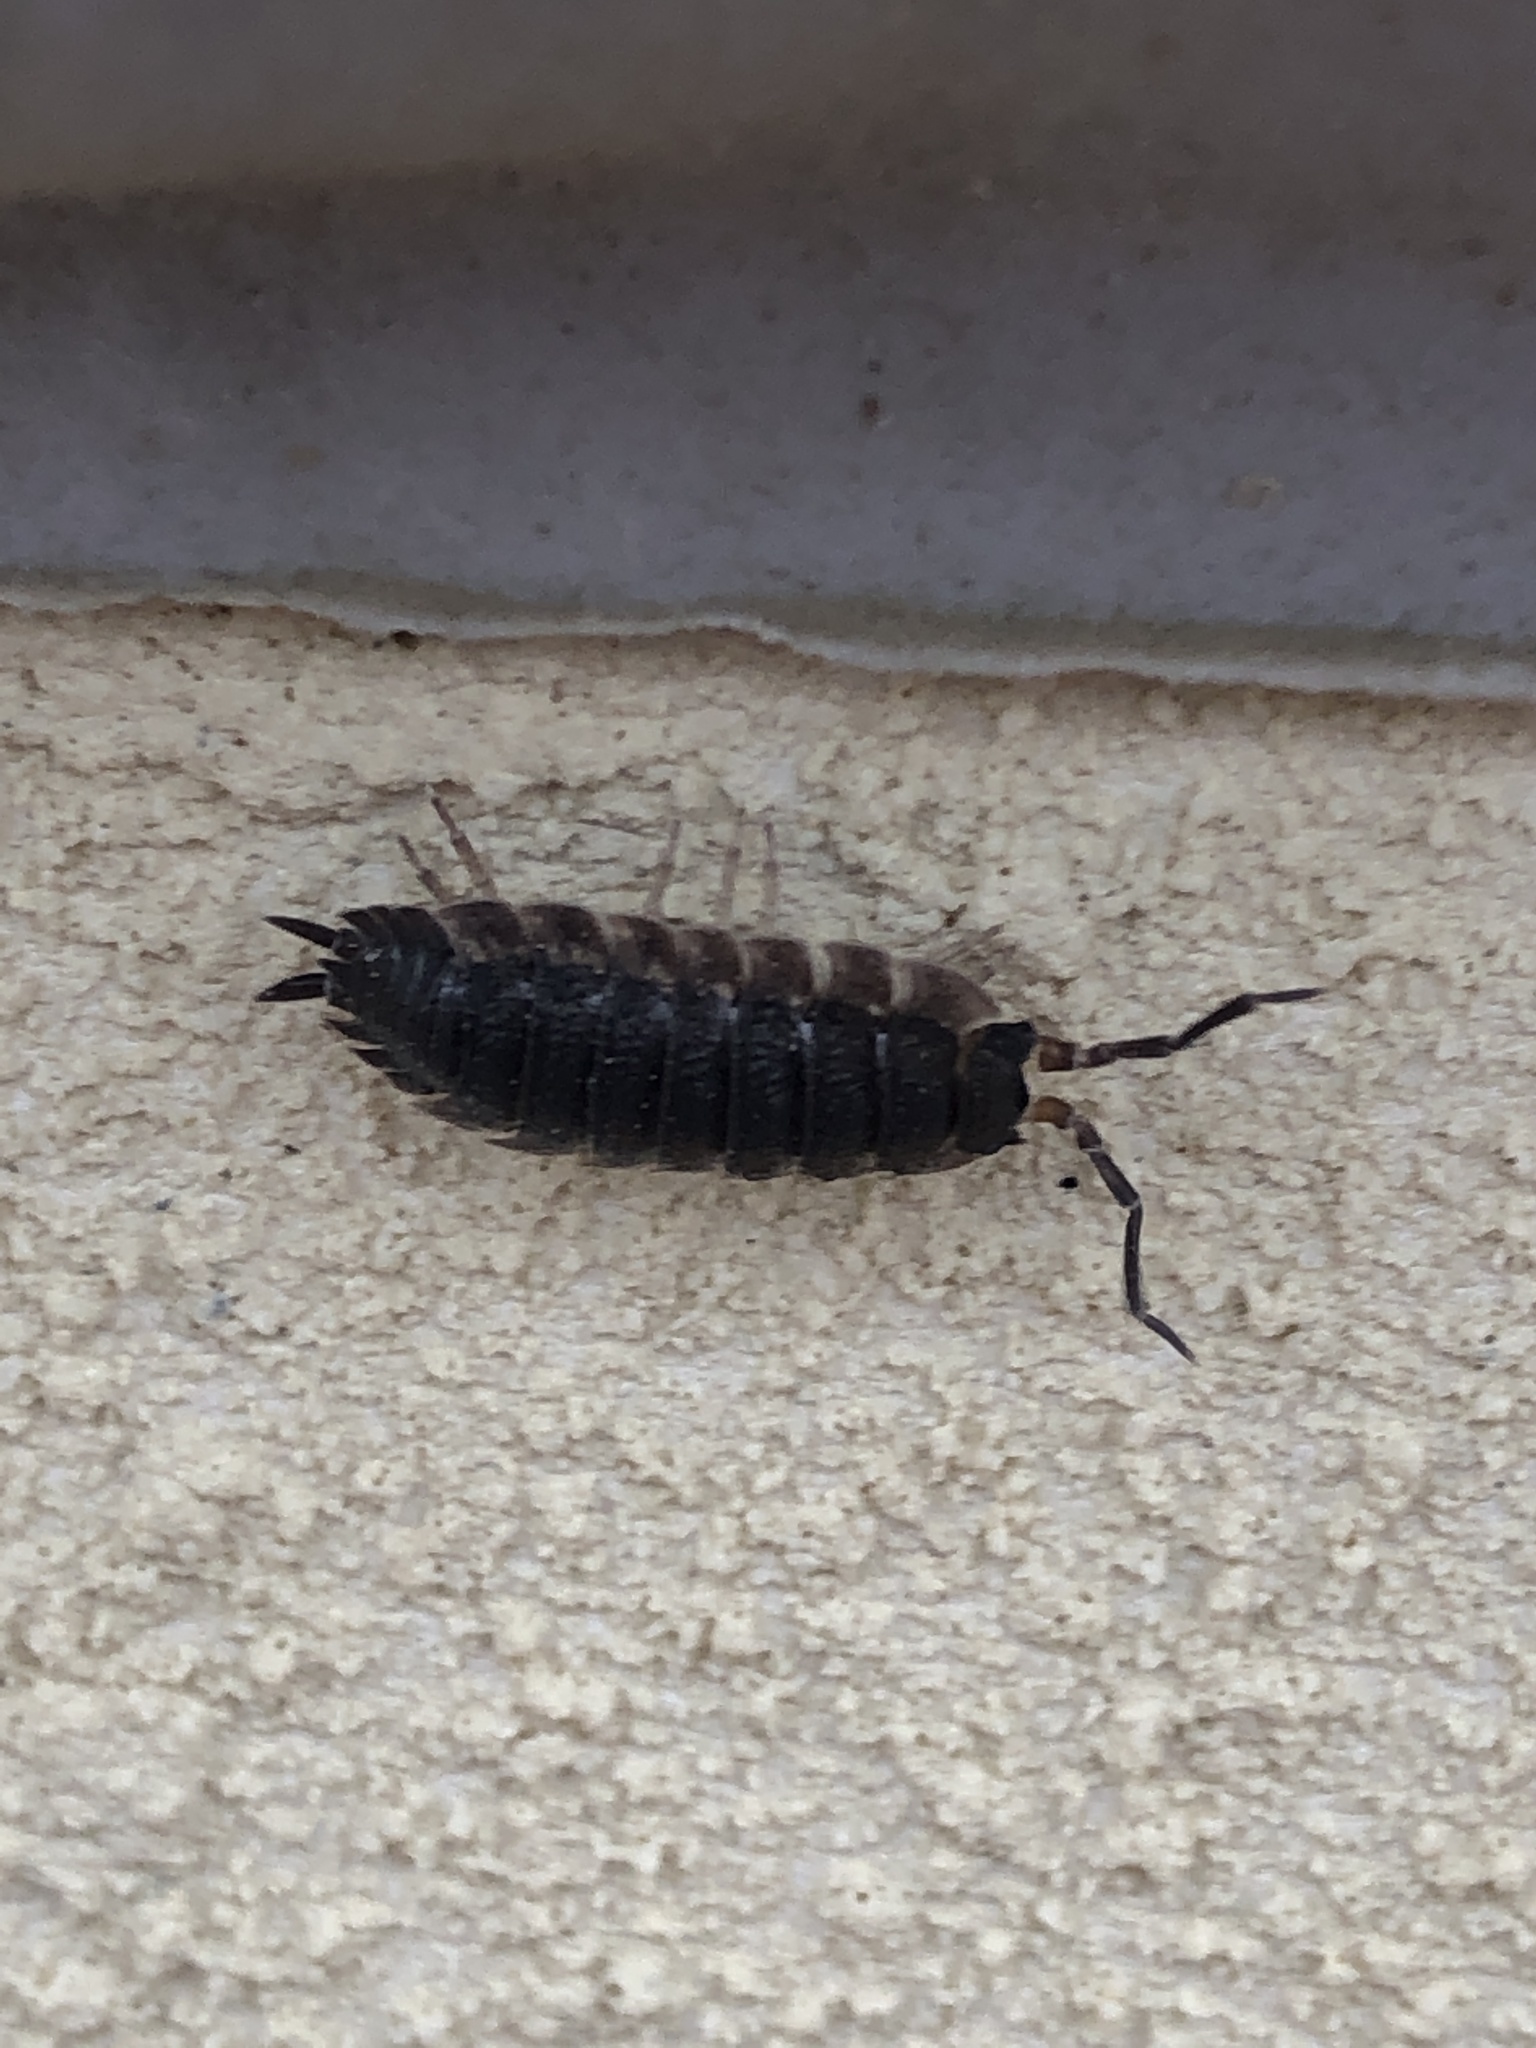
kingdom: Animalia
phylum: Arthropoda
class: Malacostraca
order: Isopoda
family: Porcellionidae
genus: Porcellio
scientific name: Porcellio scaber
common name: Common rough woodlouse
